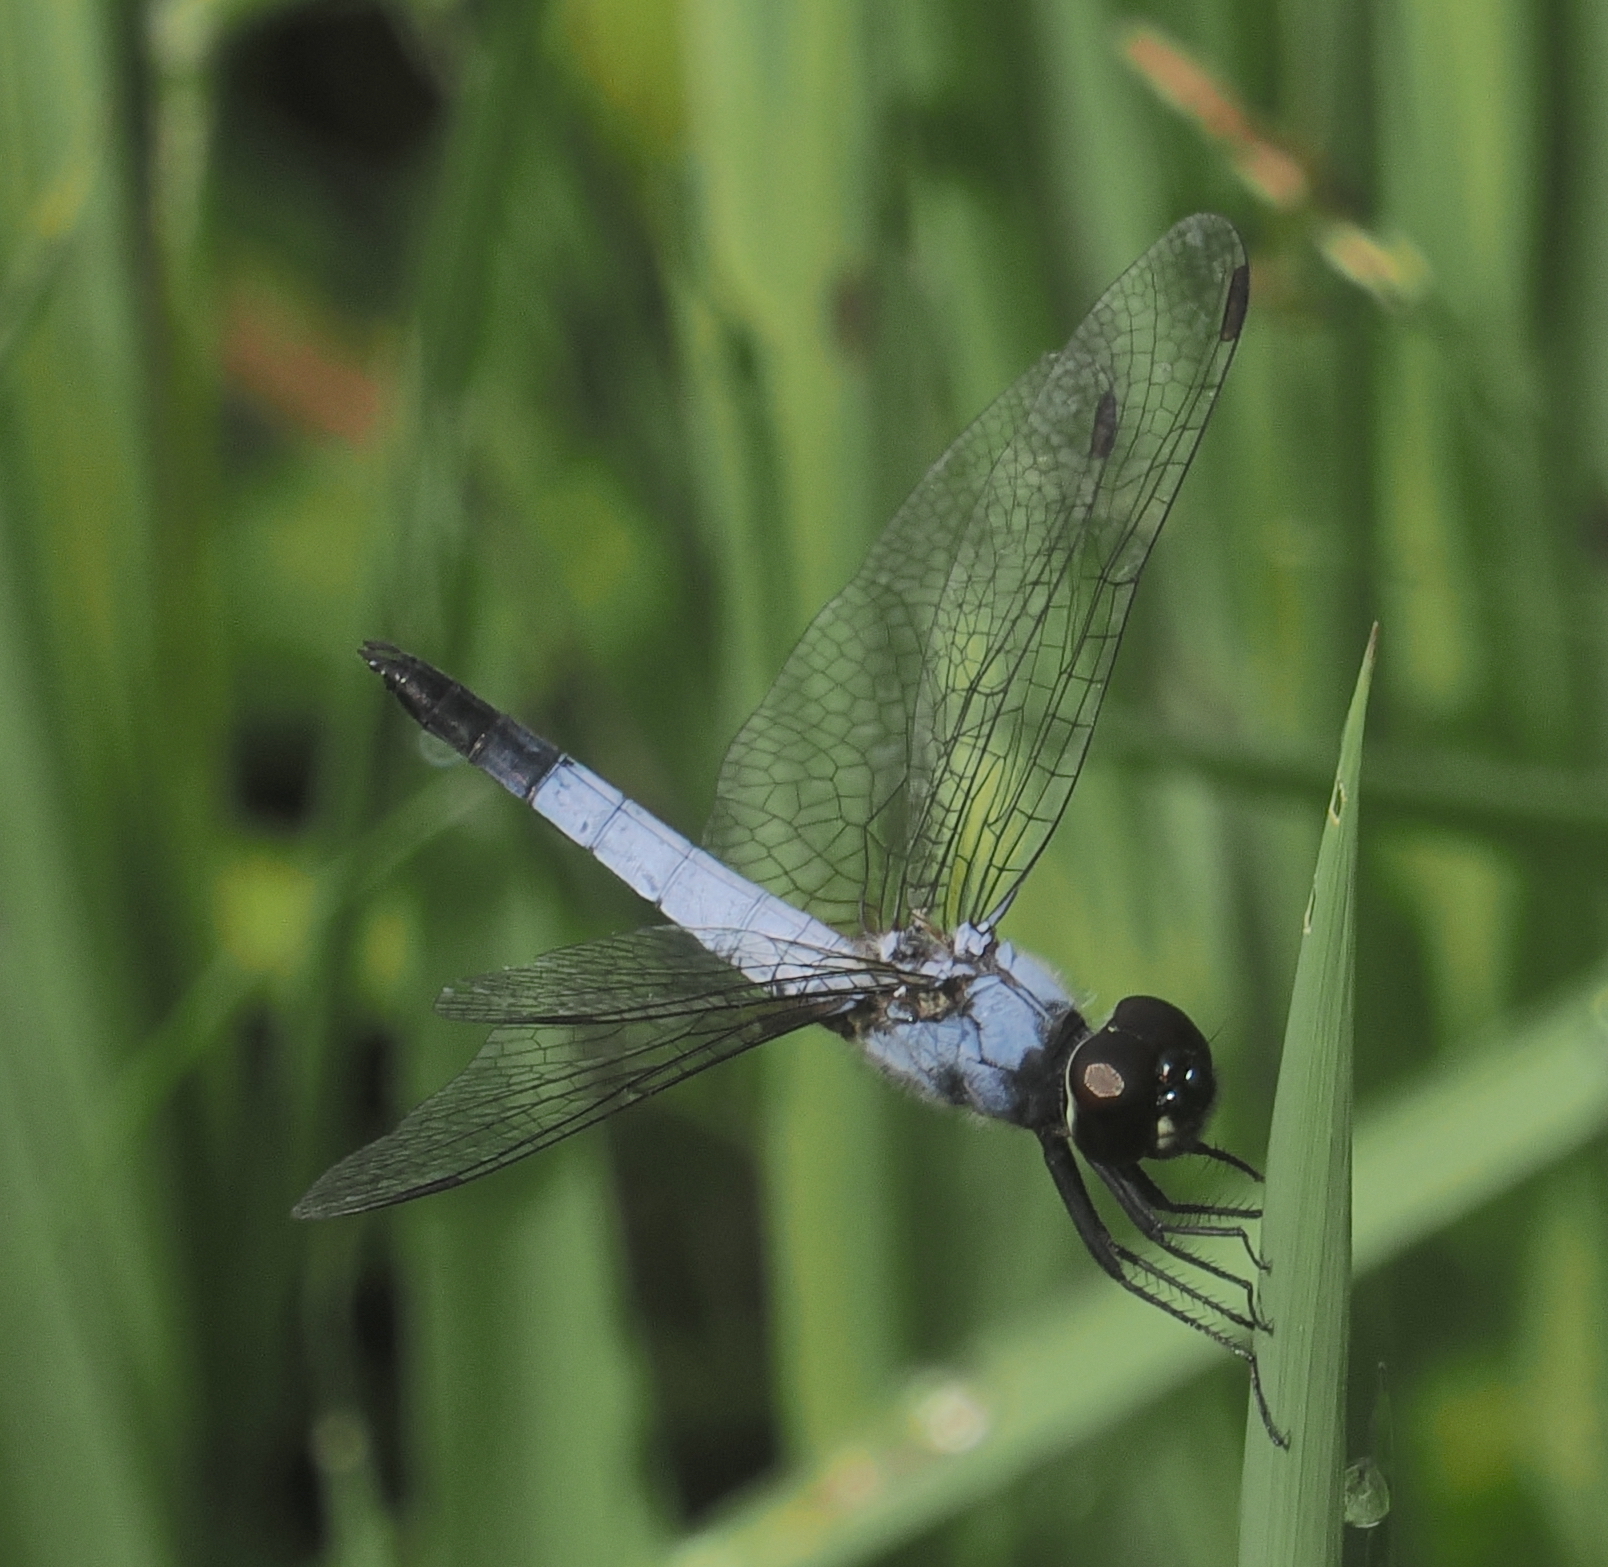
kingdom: Animalia
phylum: Arthropoda
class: Insecta
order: Odonata
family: Libellulidae
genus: Aethriamanta
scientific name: Aethriamanta gracilis
